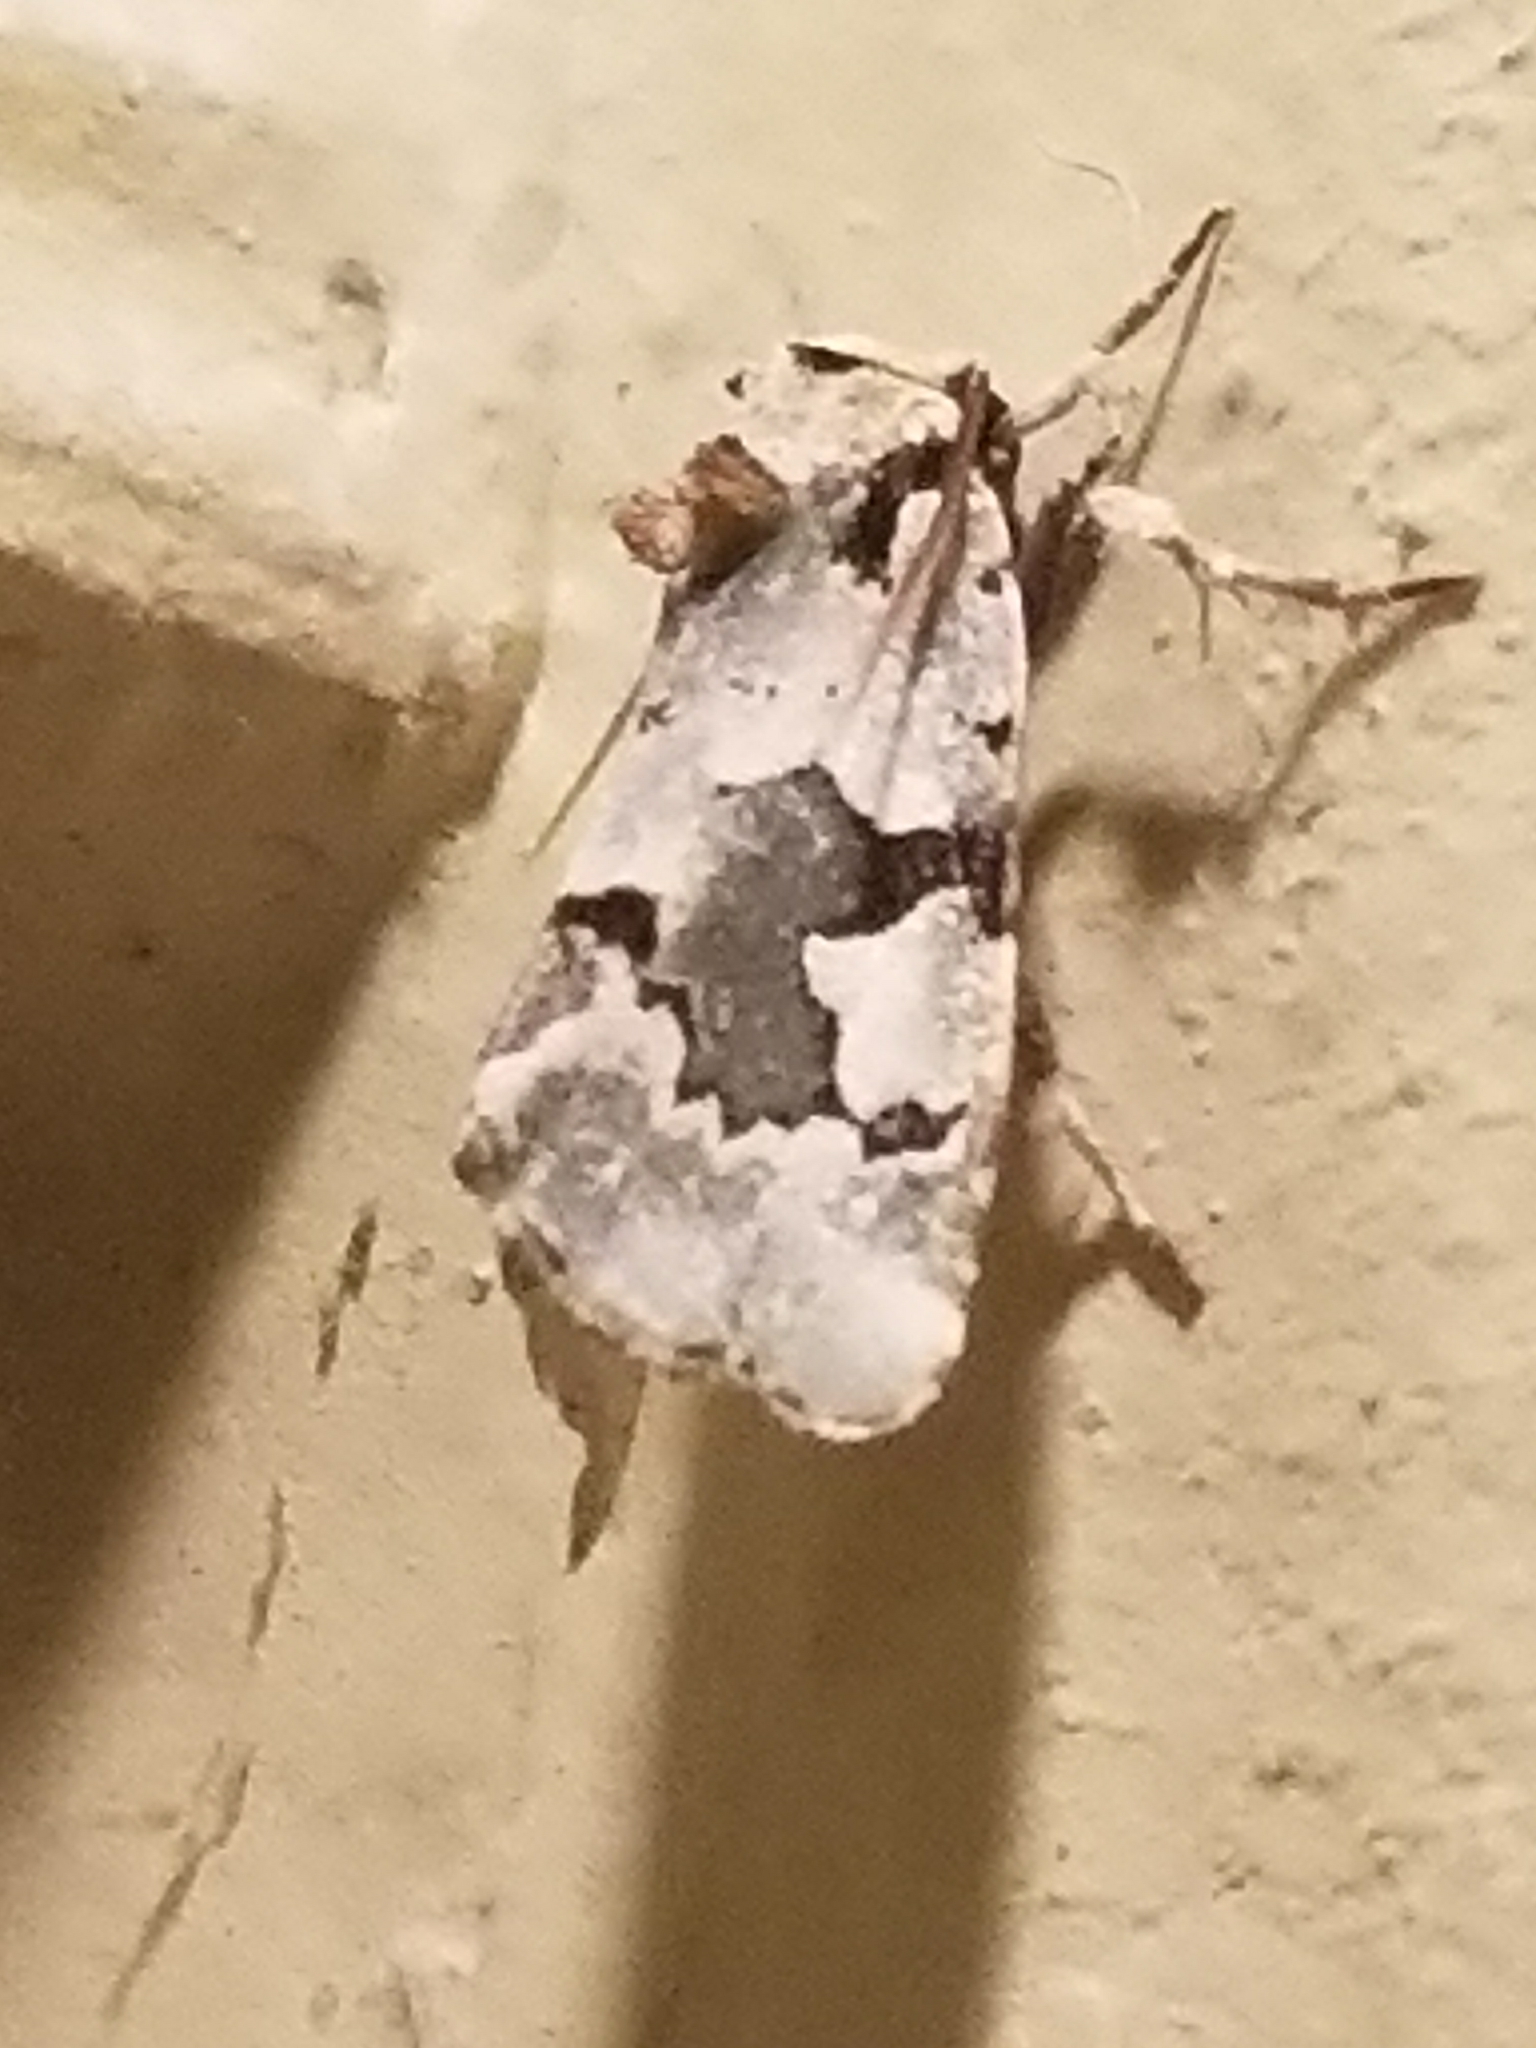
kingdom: Animalia
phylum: Arthropoda
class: Insecta
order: Lepidoptera
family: Noctuidae
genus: Emarginea
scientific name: Emarginea percara
